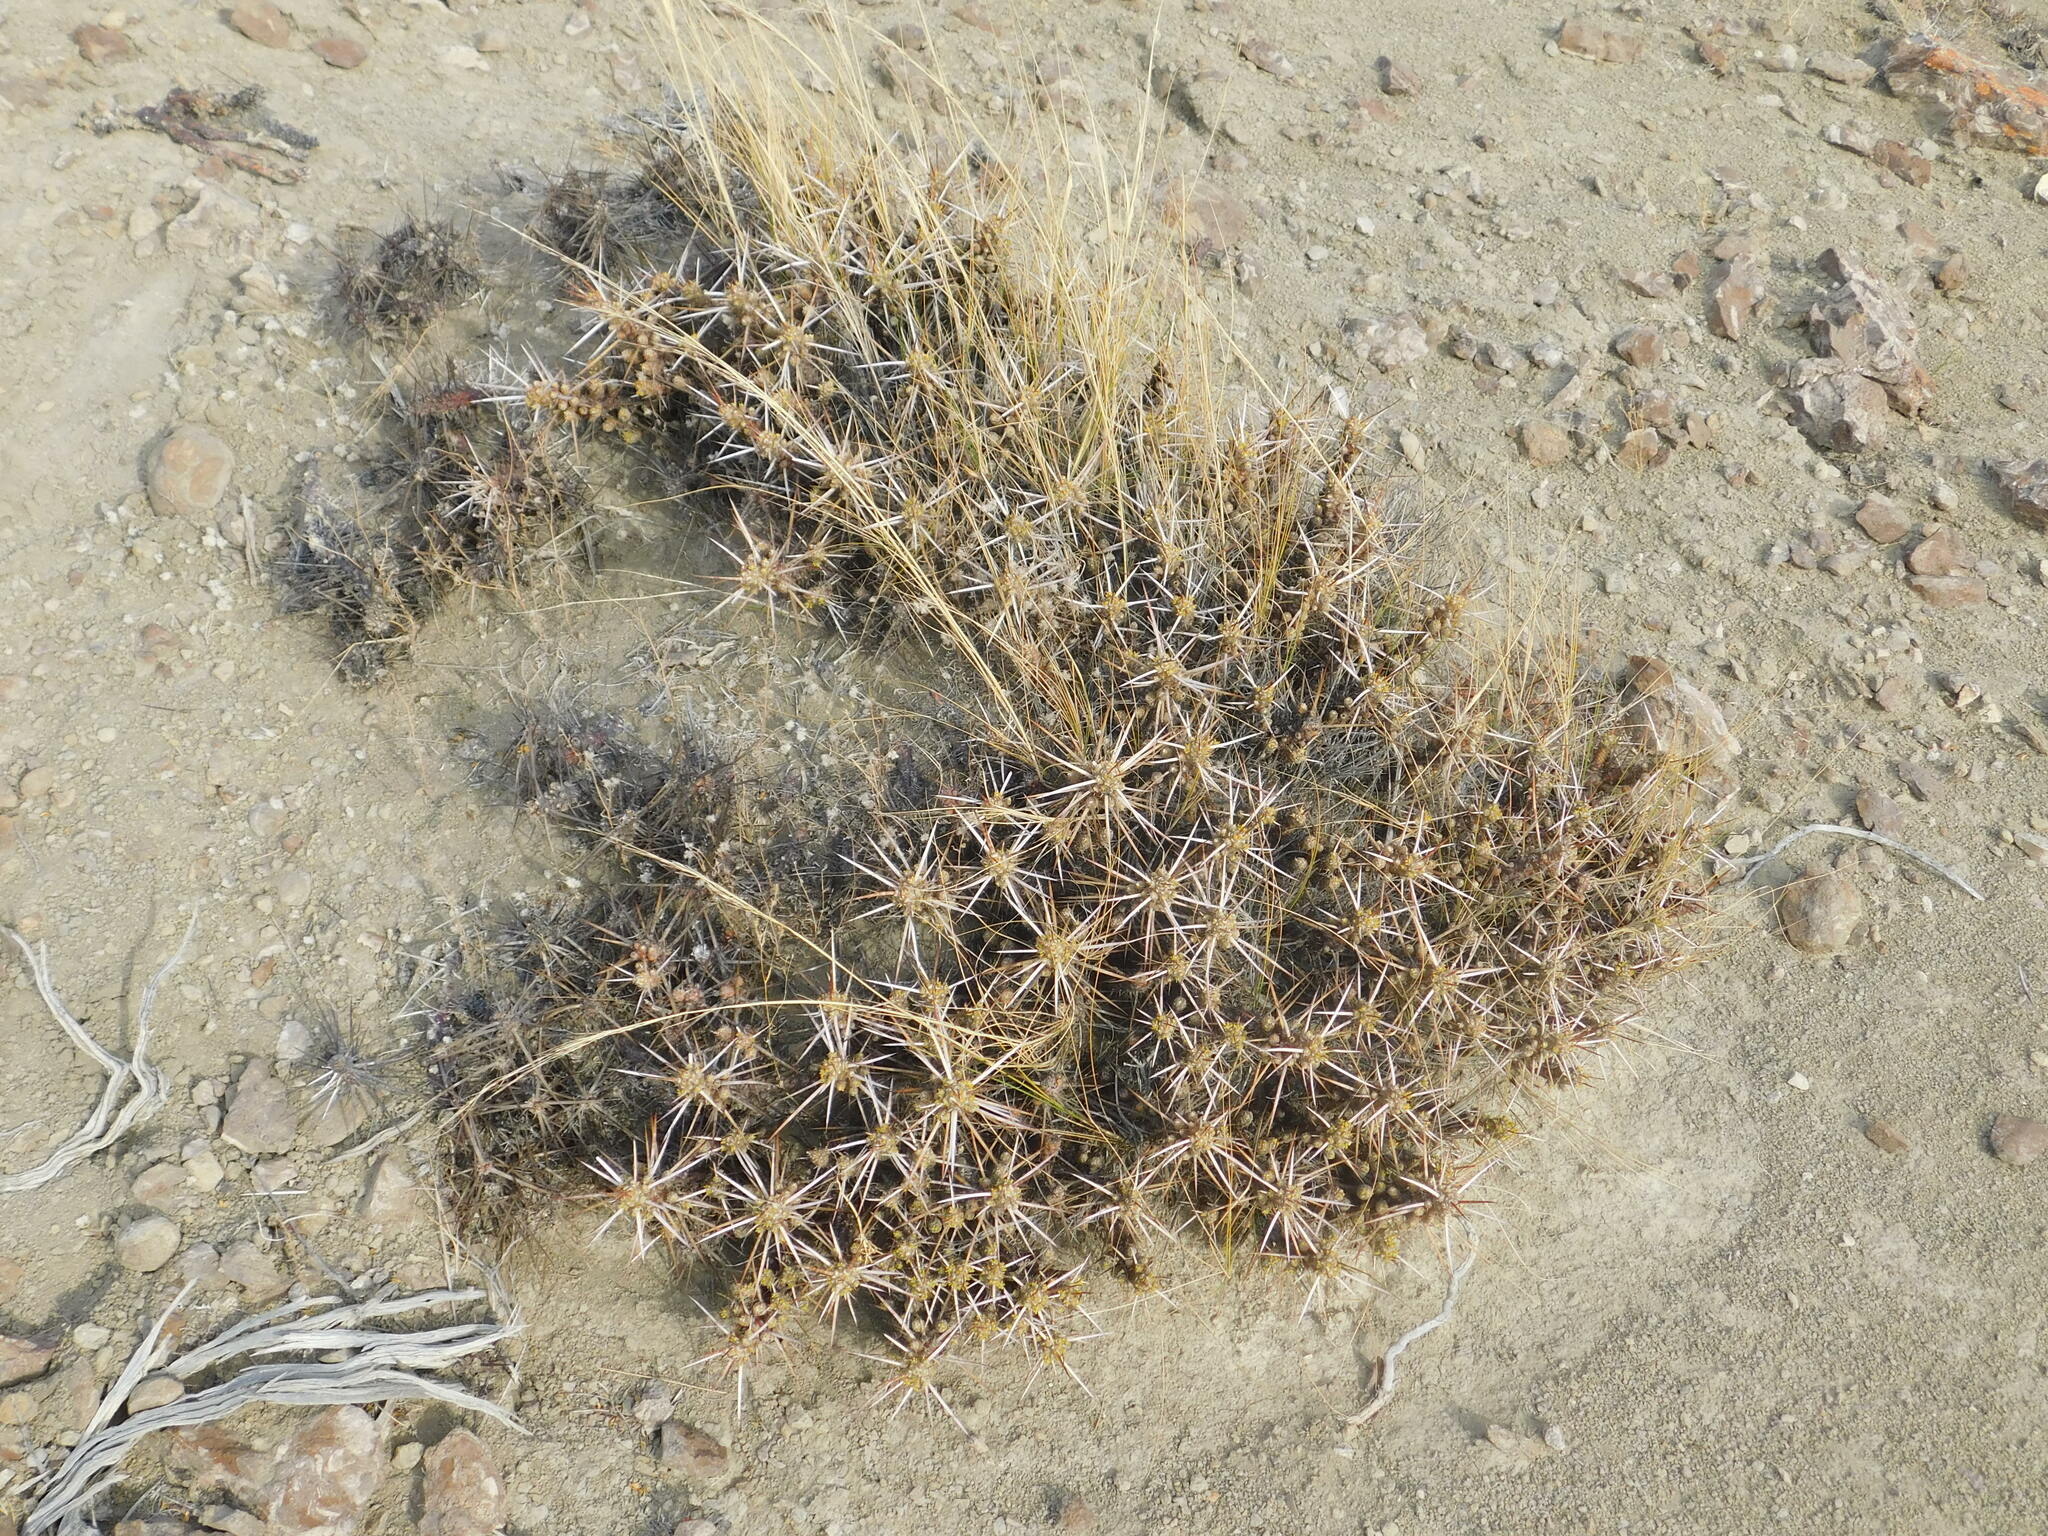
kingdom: Plantae
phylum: Tracheophyta
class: Magnoliopsida
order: Caryophyllales
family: Cactaceae
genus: Maihuenia
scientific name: Maihuenia patagonica
